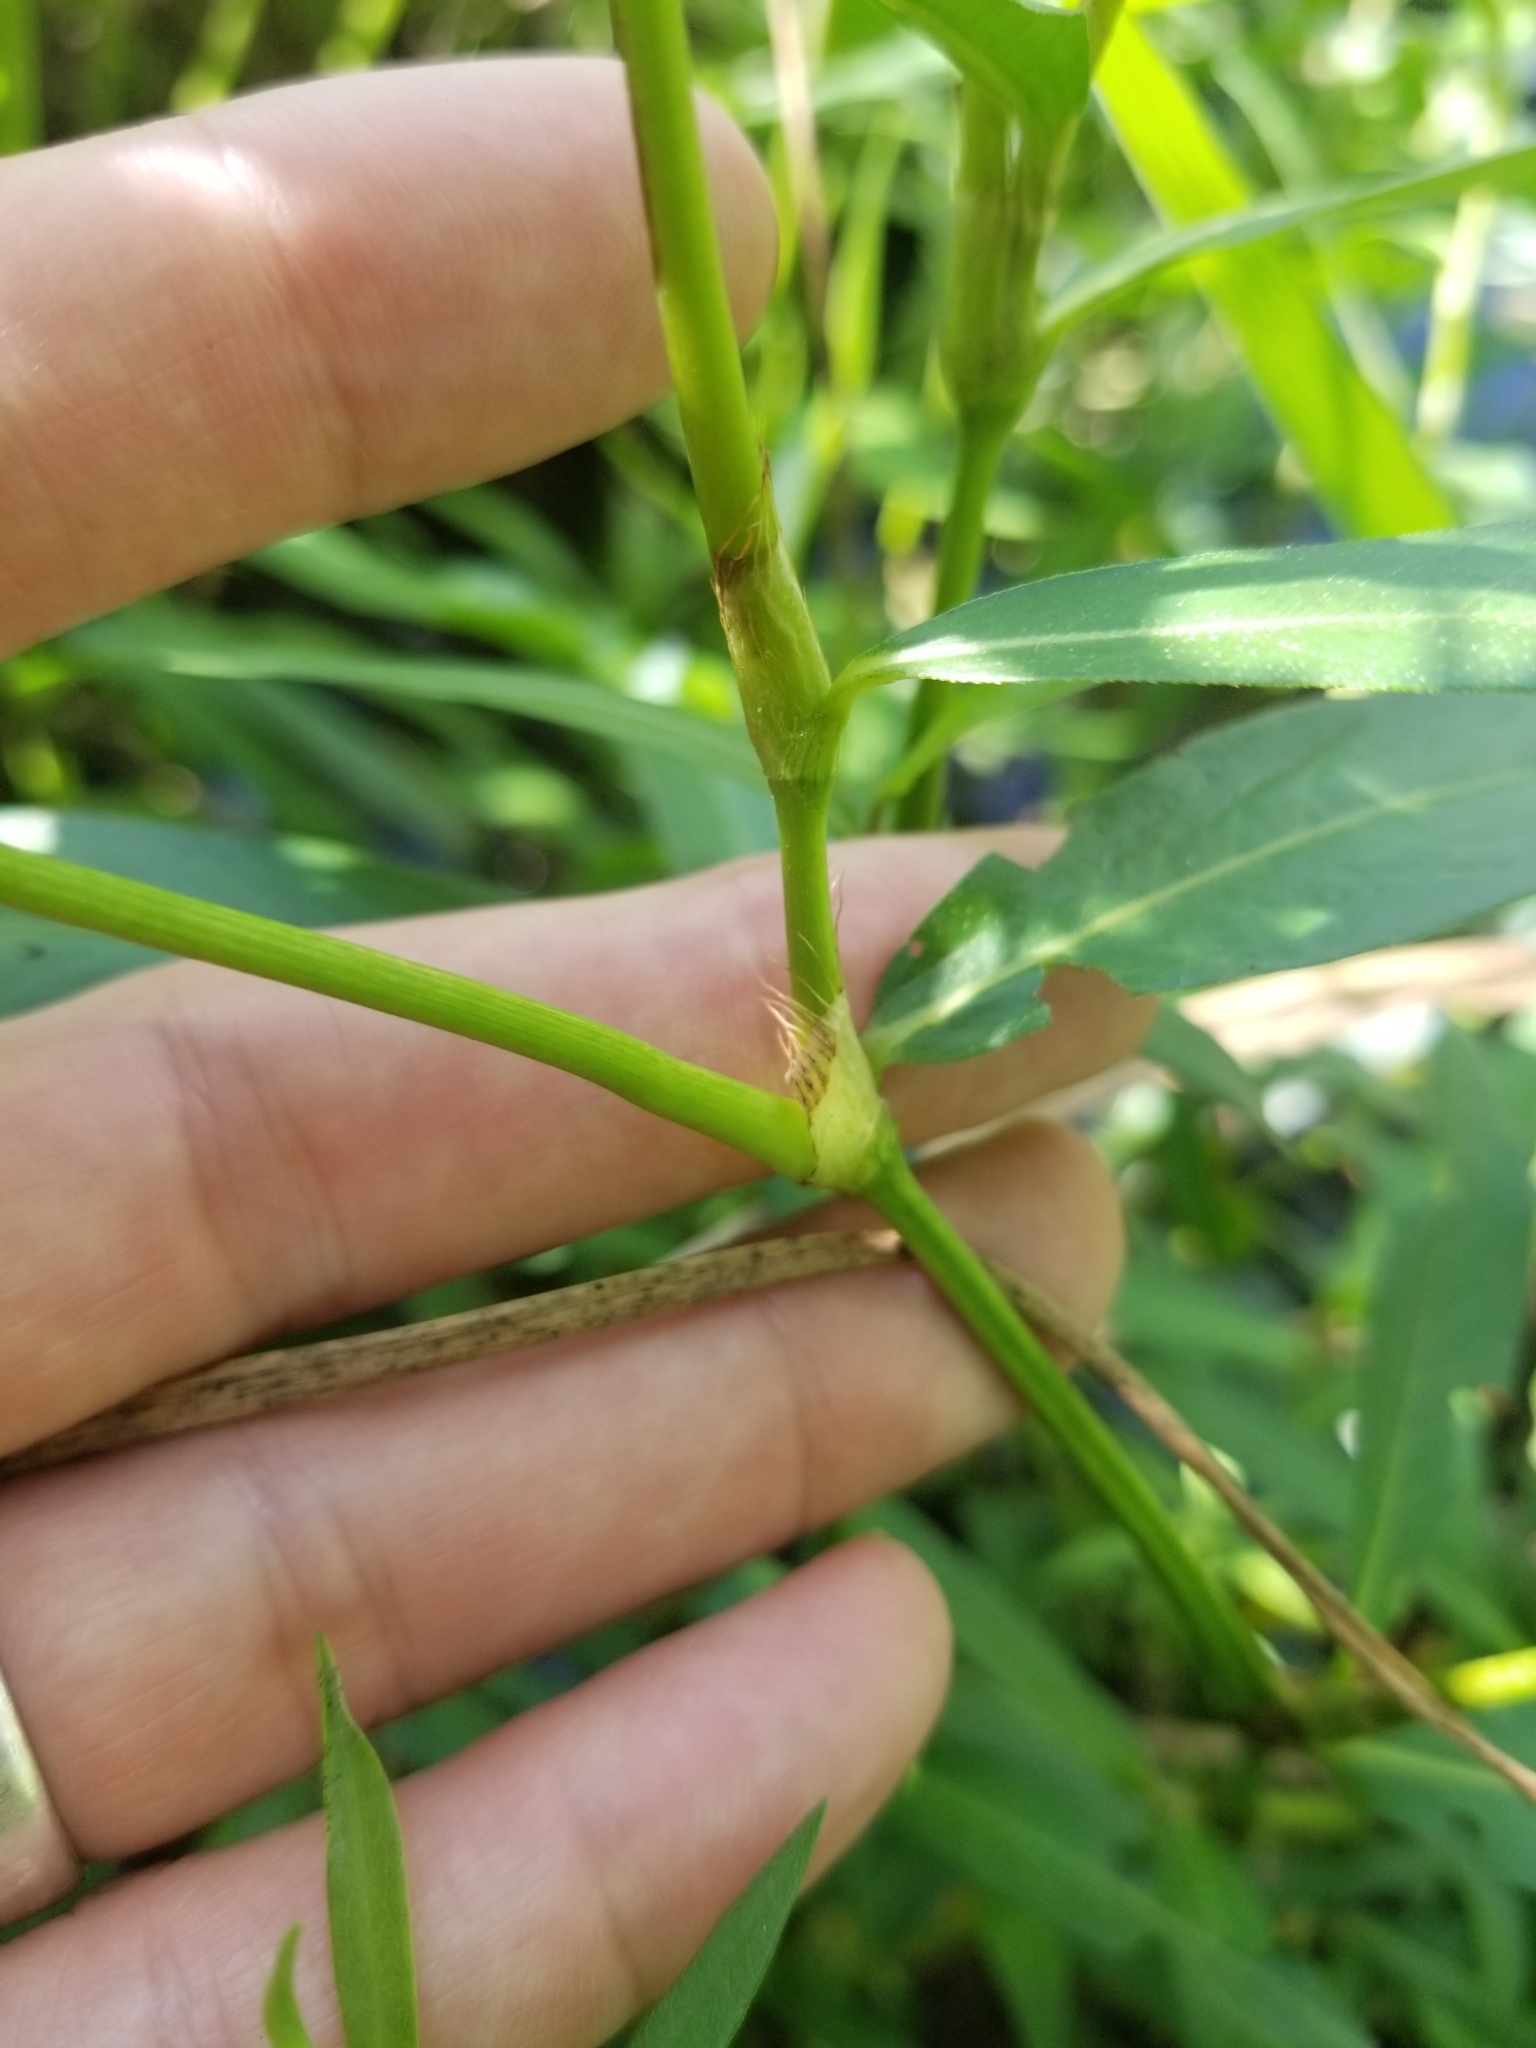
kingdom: Plantae
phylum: Tracheophyta
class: Magnoliopsida
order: Caryophyllales
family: Polygonaceae
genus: Persicaria
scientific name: Persicaria hydropiperoides
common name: Swamp smartweed
